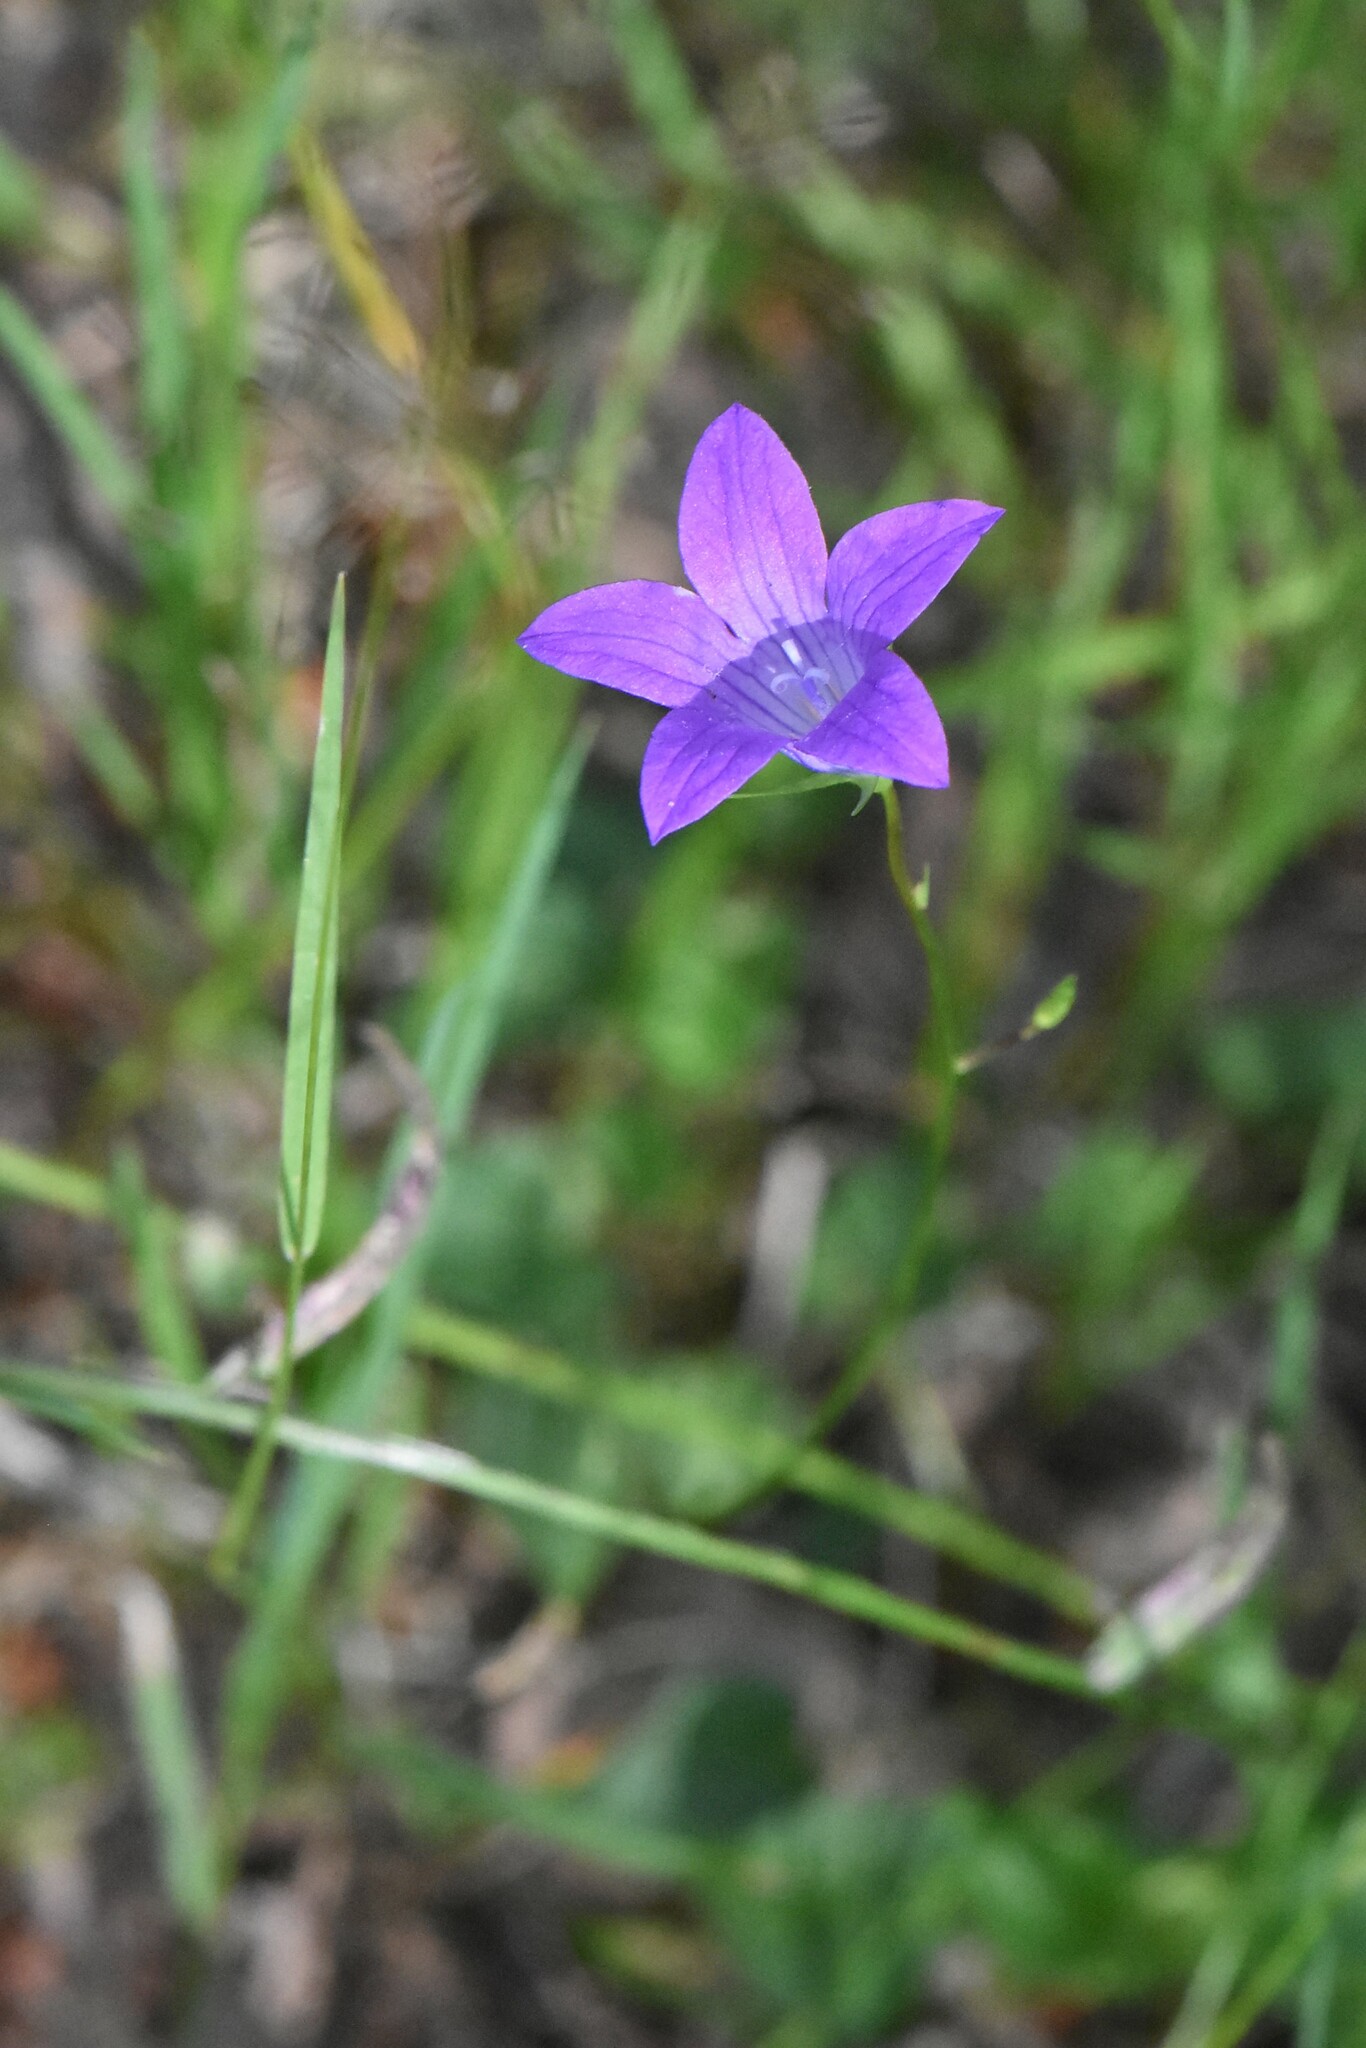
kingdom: Plantae
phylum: Tracheophyta
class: Magnoliopsida
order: Asterales
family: Campanulaceae
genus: Campanula
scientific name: Campanula patula
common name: Spreading bellflower
